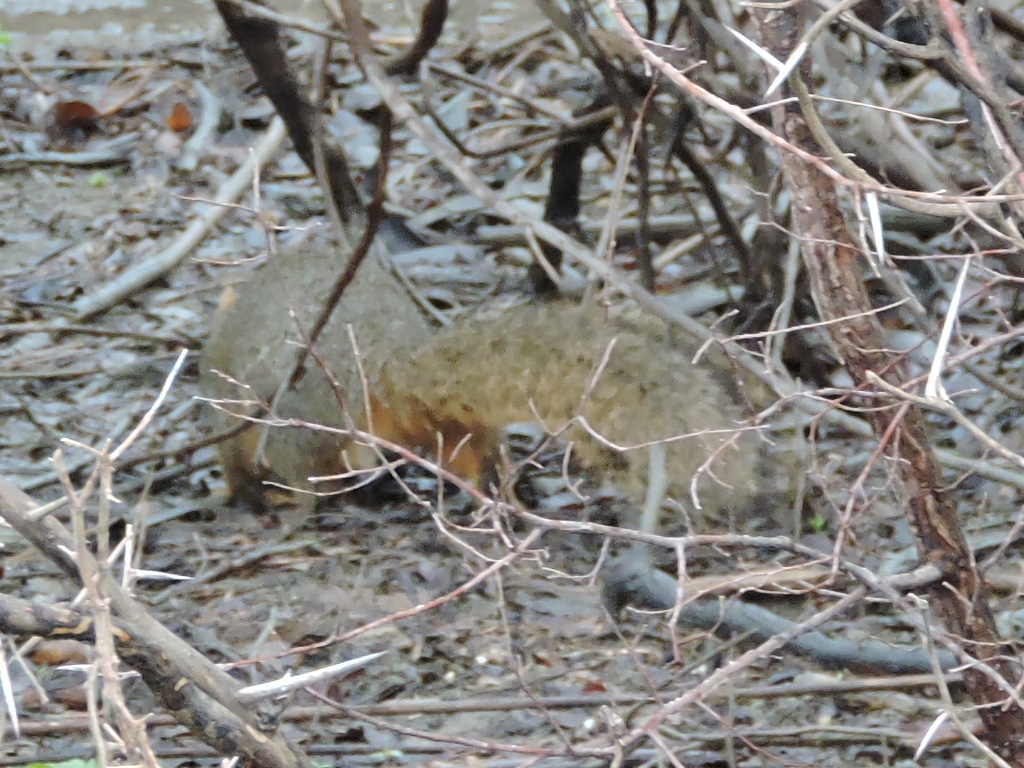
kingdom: Animalia
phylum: Chordata
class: Mammalia
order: Rodentia
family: Sciuridae
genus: Sciurus
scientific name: Sciurus niger
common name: Fox squirrel
